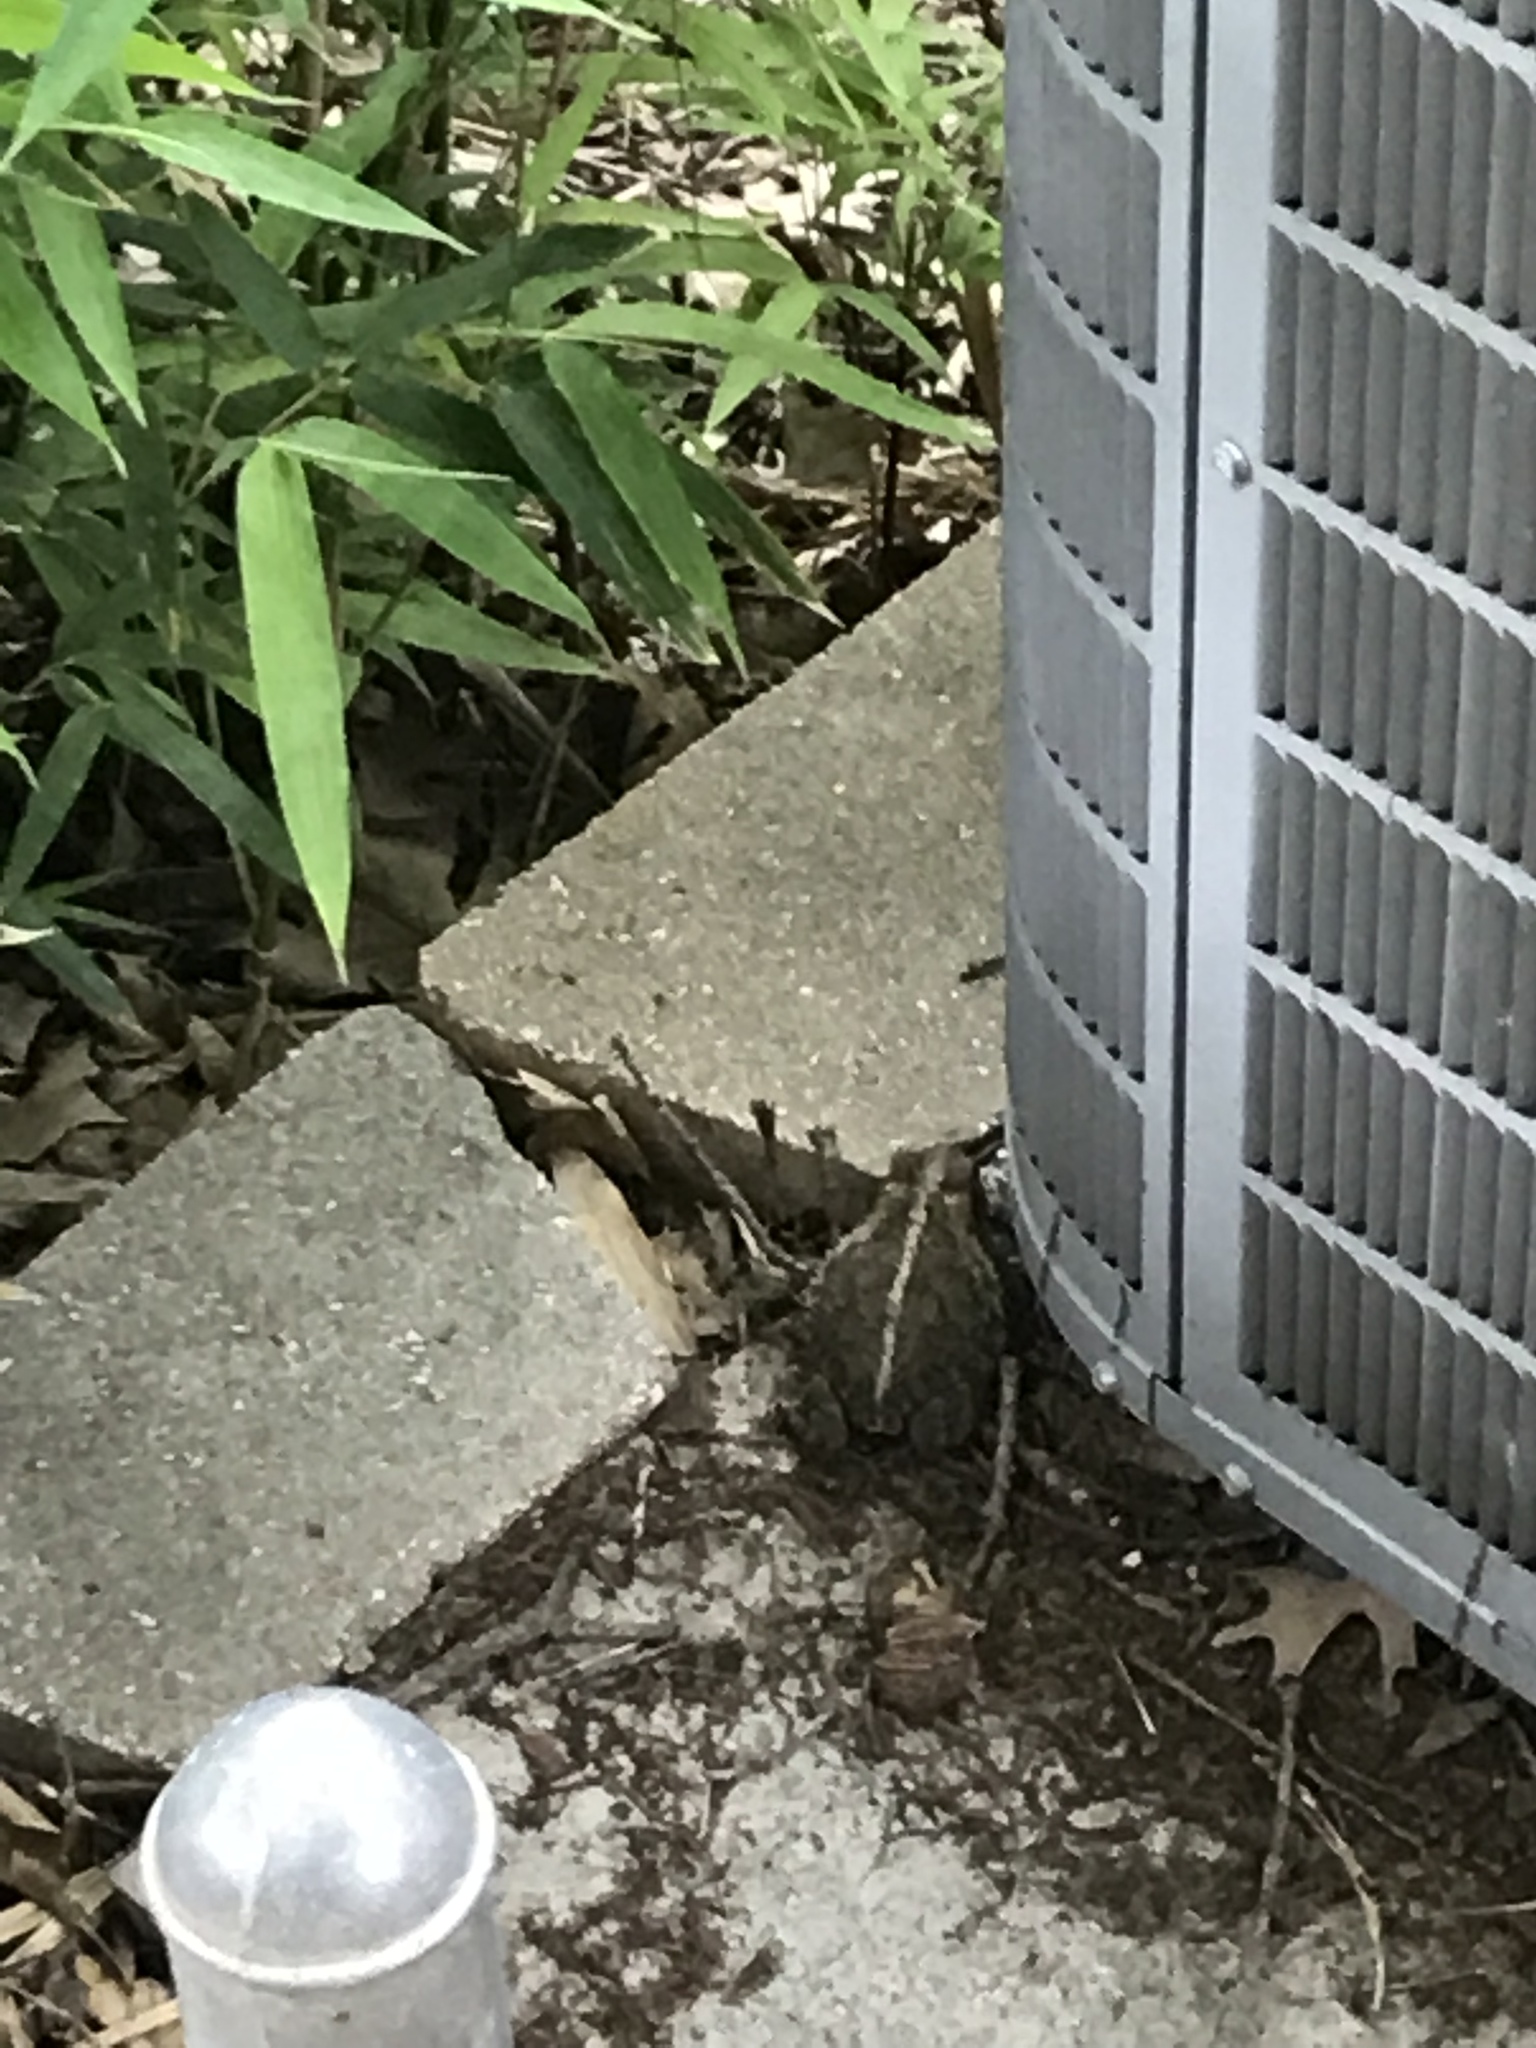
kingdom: Animalia
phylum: Chordata
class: Amphibia
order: Anura
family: Bufonidae
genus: Incilius
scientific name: Incilius nebulifer
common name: Gulf coast toad
